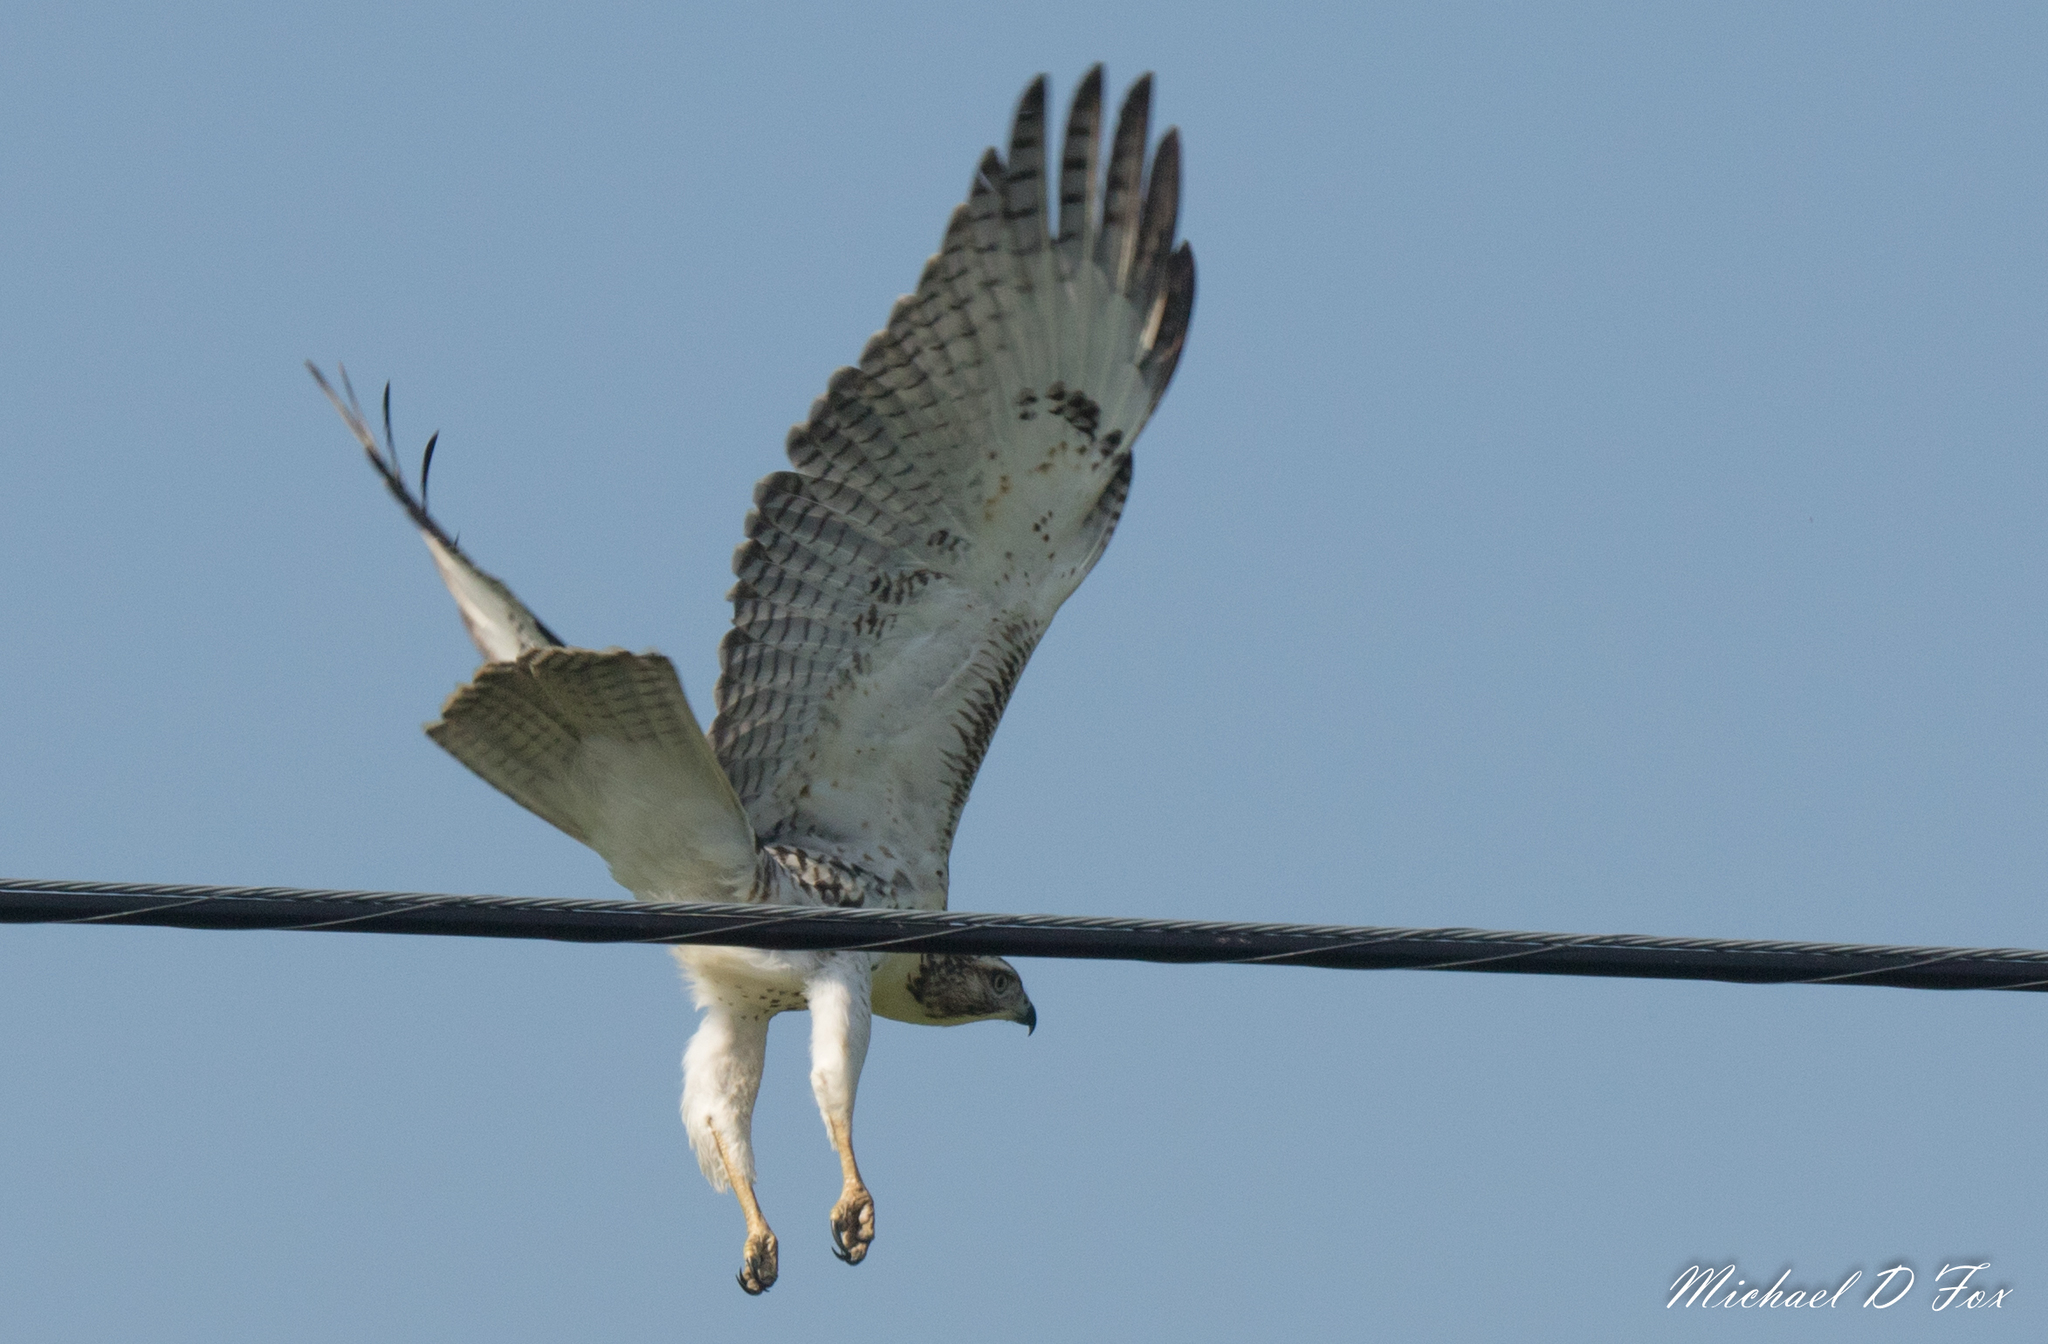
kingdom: Animalia
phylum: Chordata
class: Aves
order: Accipitriformes
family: Accipitridae
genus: Buteo
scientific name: Buteo jamaicensis
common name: Red-tailed hawk
